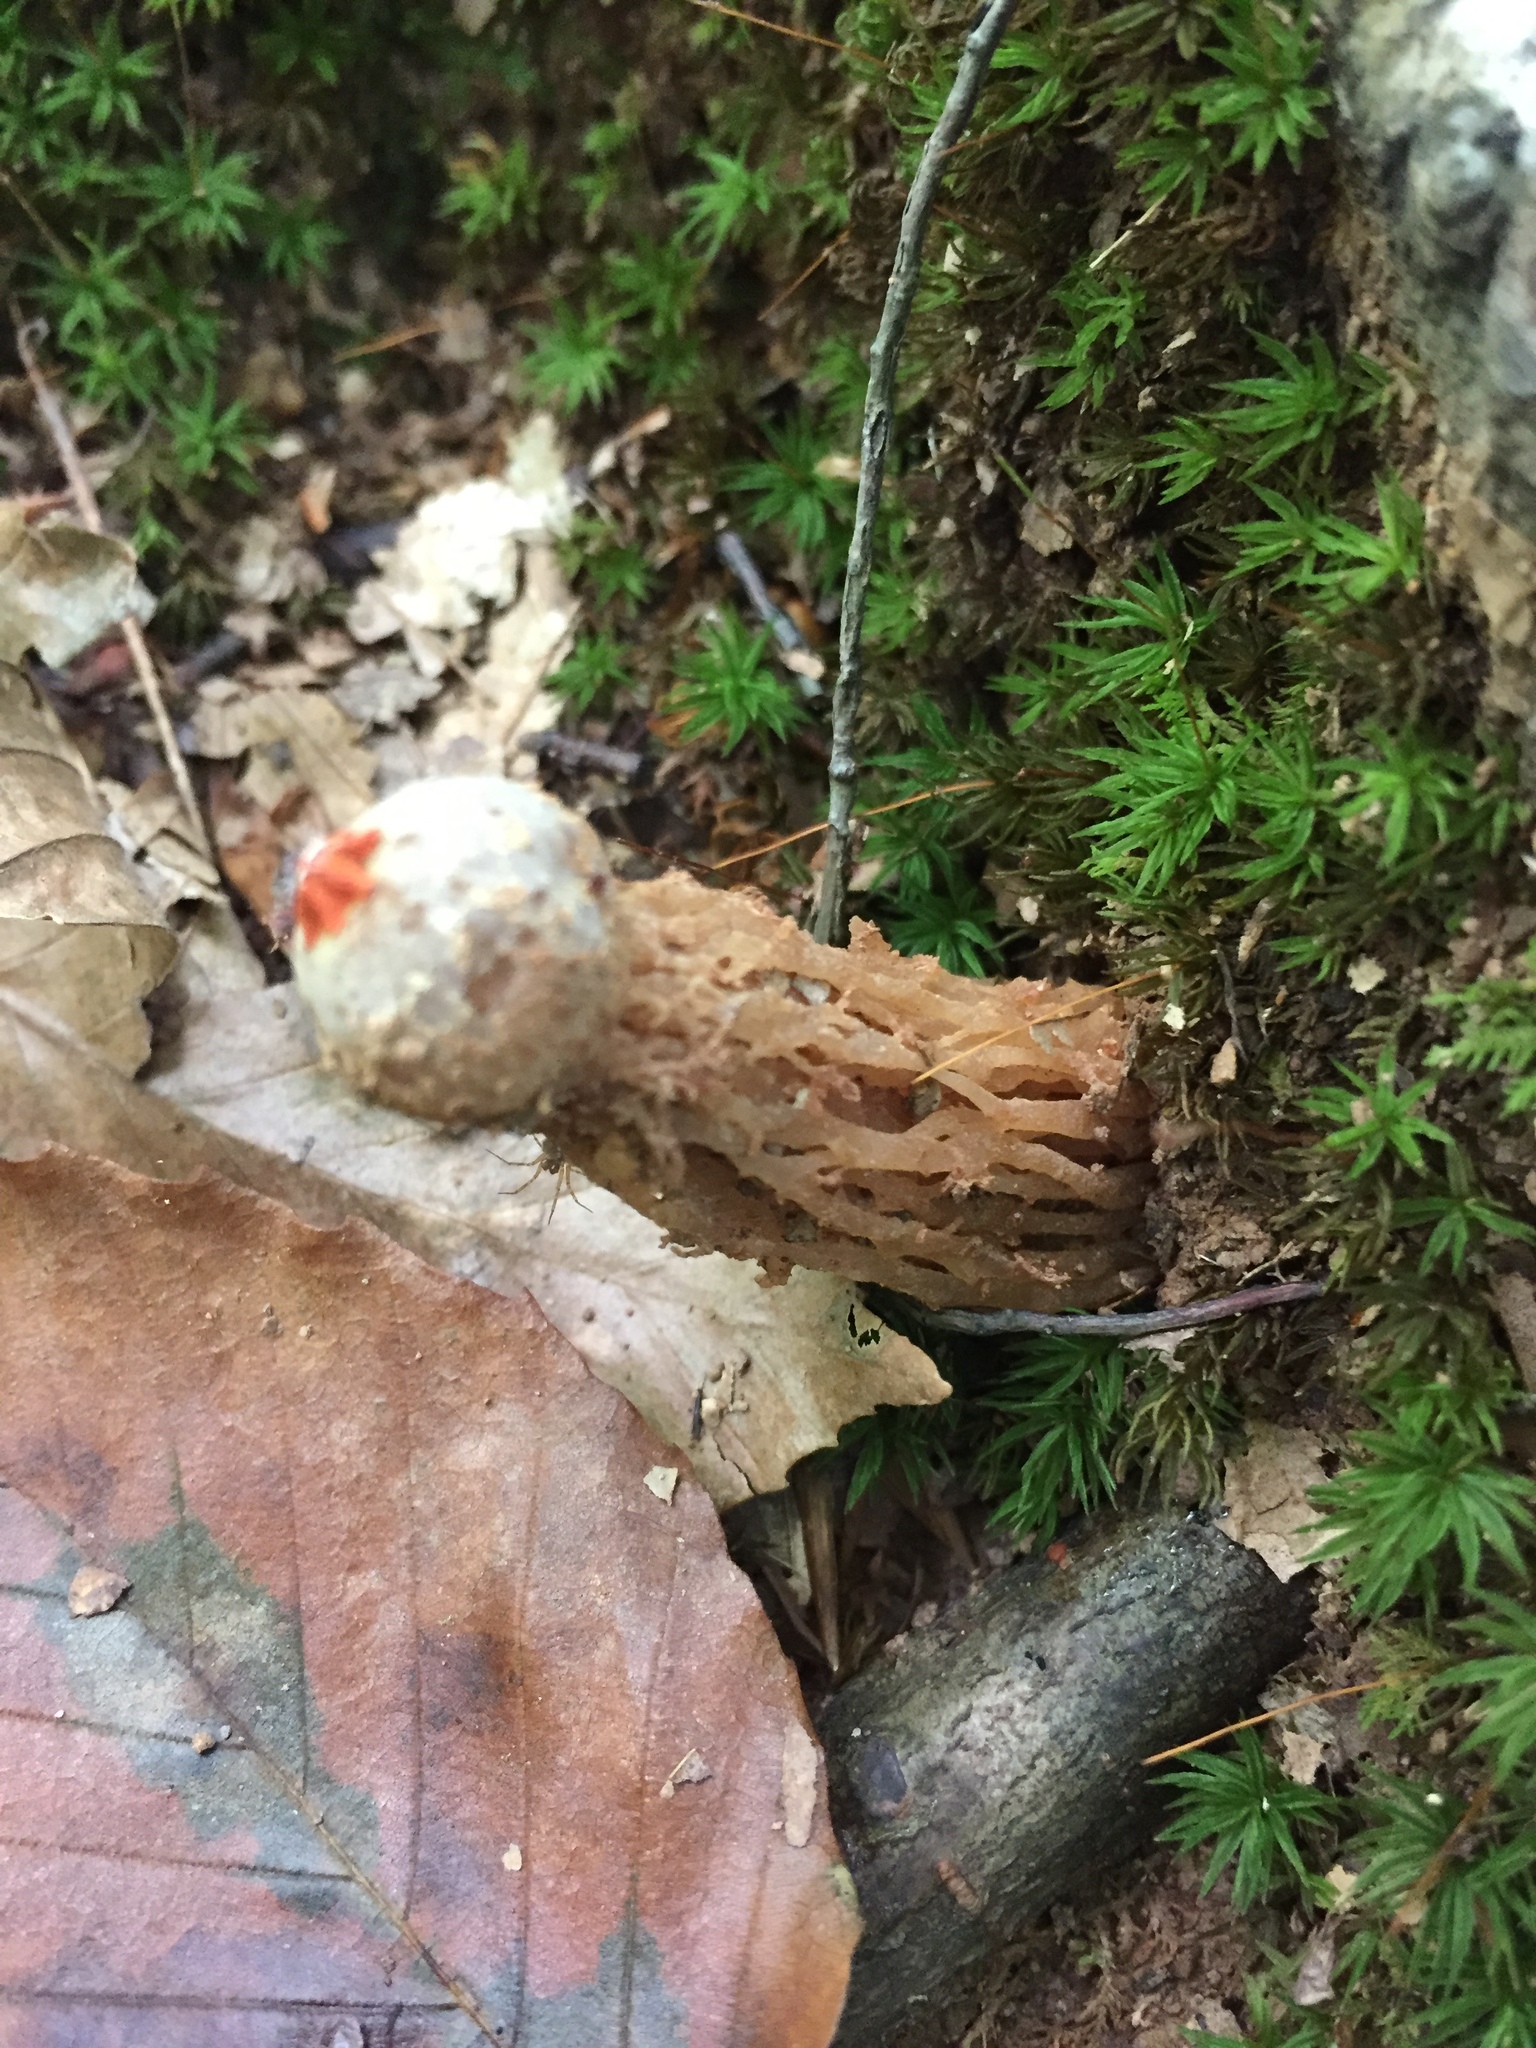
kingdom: Fungi
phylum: Basidiomycota
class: Agaricomycetes
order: Boletales
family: Calostomataceae
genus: Calostoma
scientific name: Calostoma ravenelii
